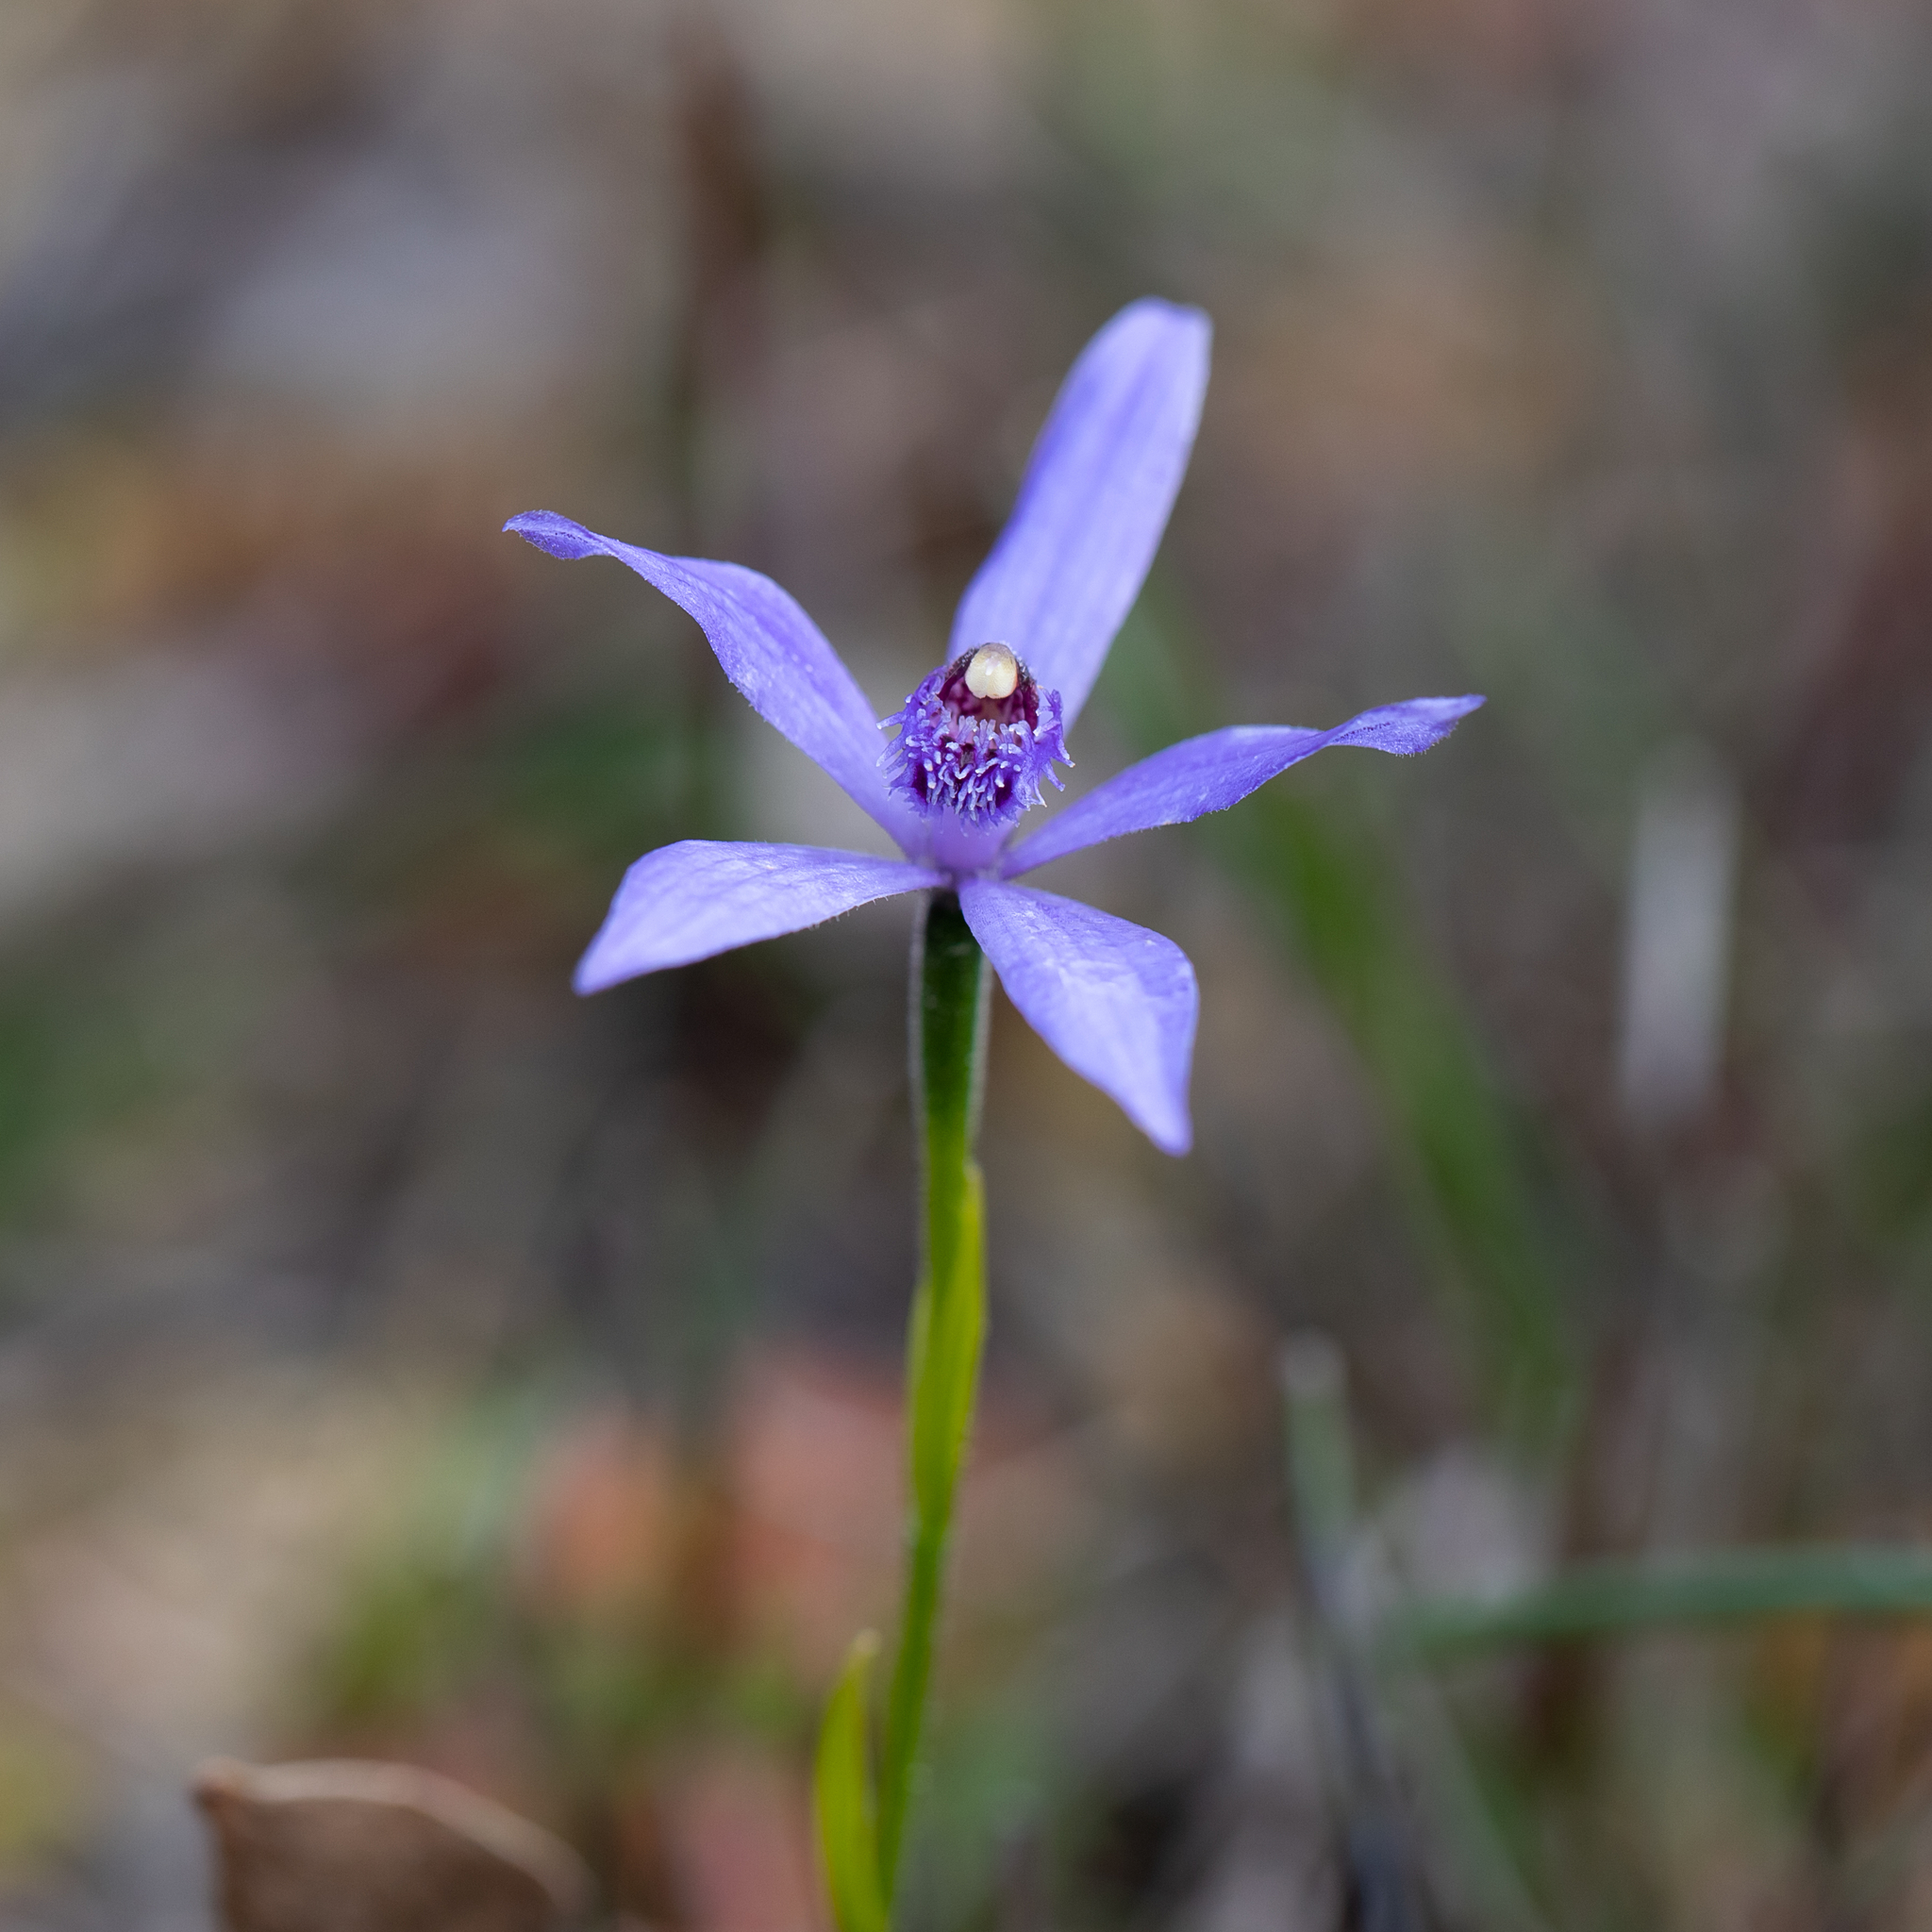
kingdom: Plantae
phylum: Tracheophyta
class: Liliopsida
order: Asparagales
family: Orchidaceae
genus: Pheladenia
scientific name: Pheladenia deformis
